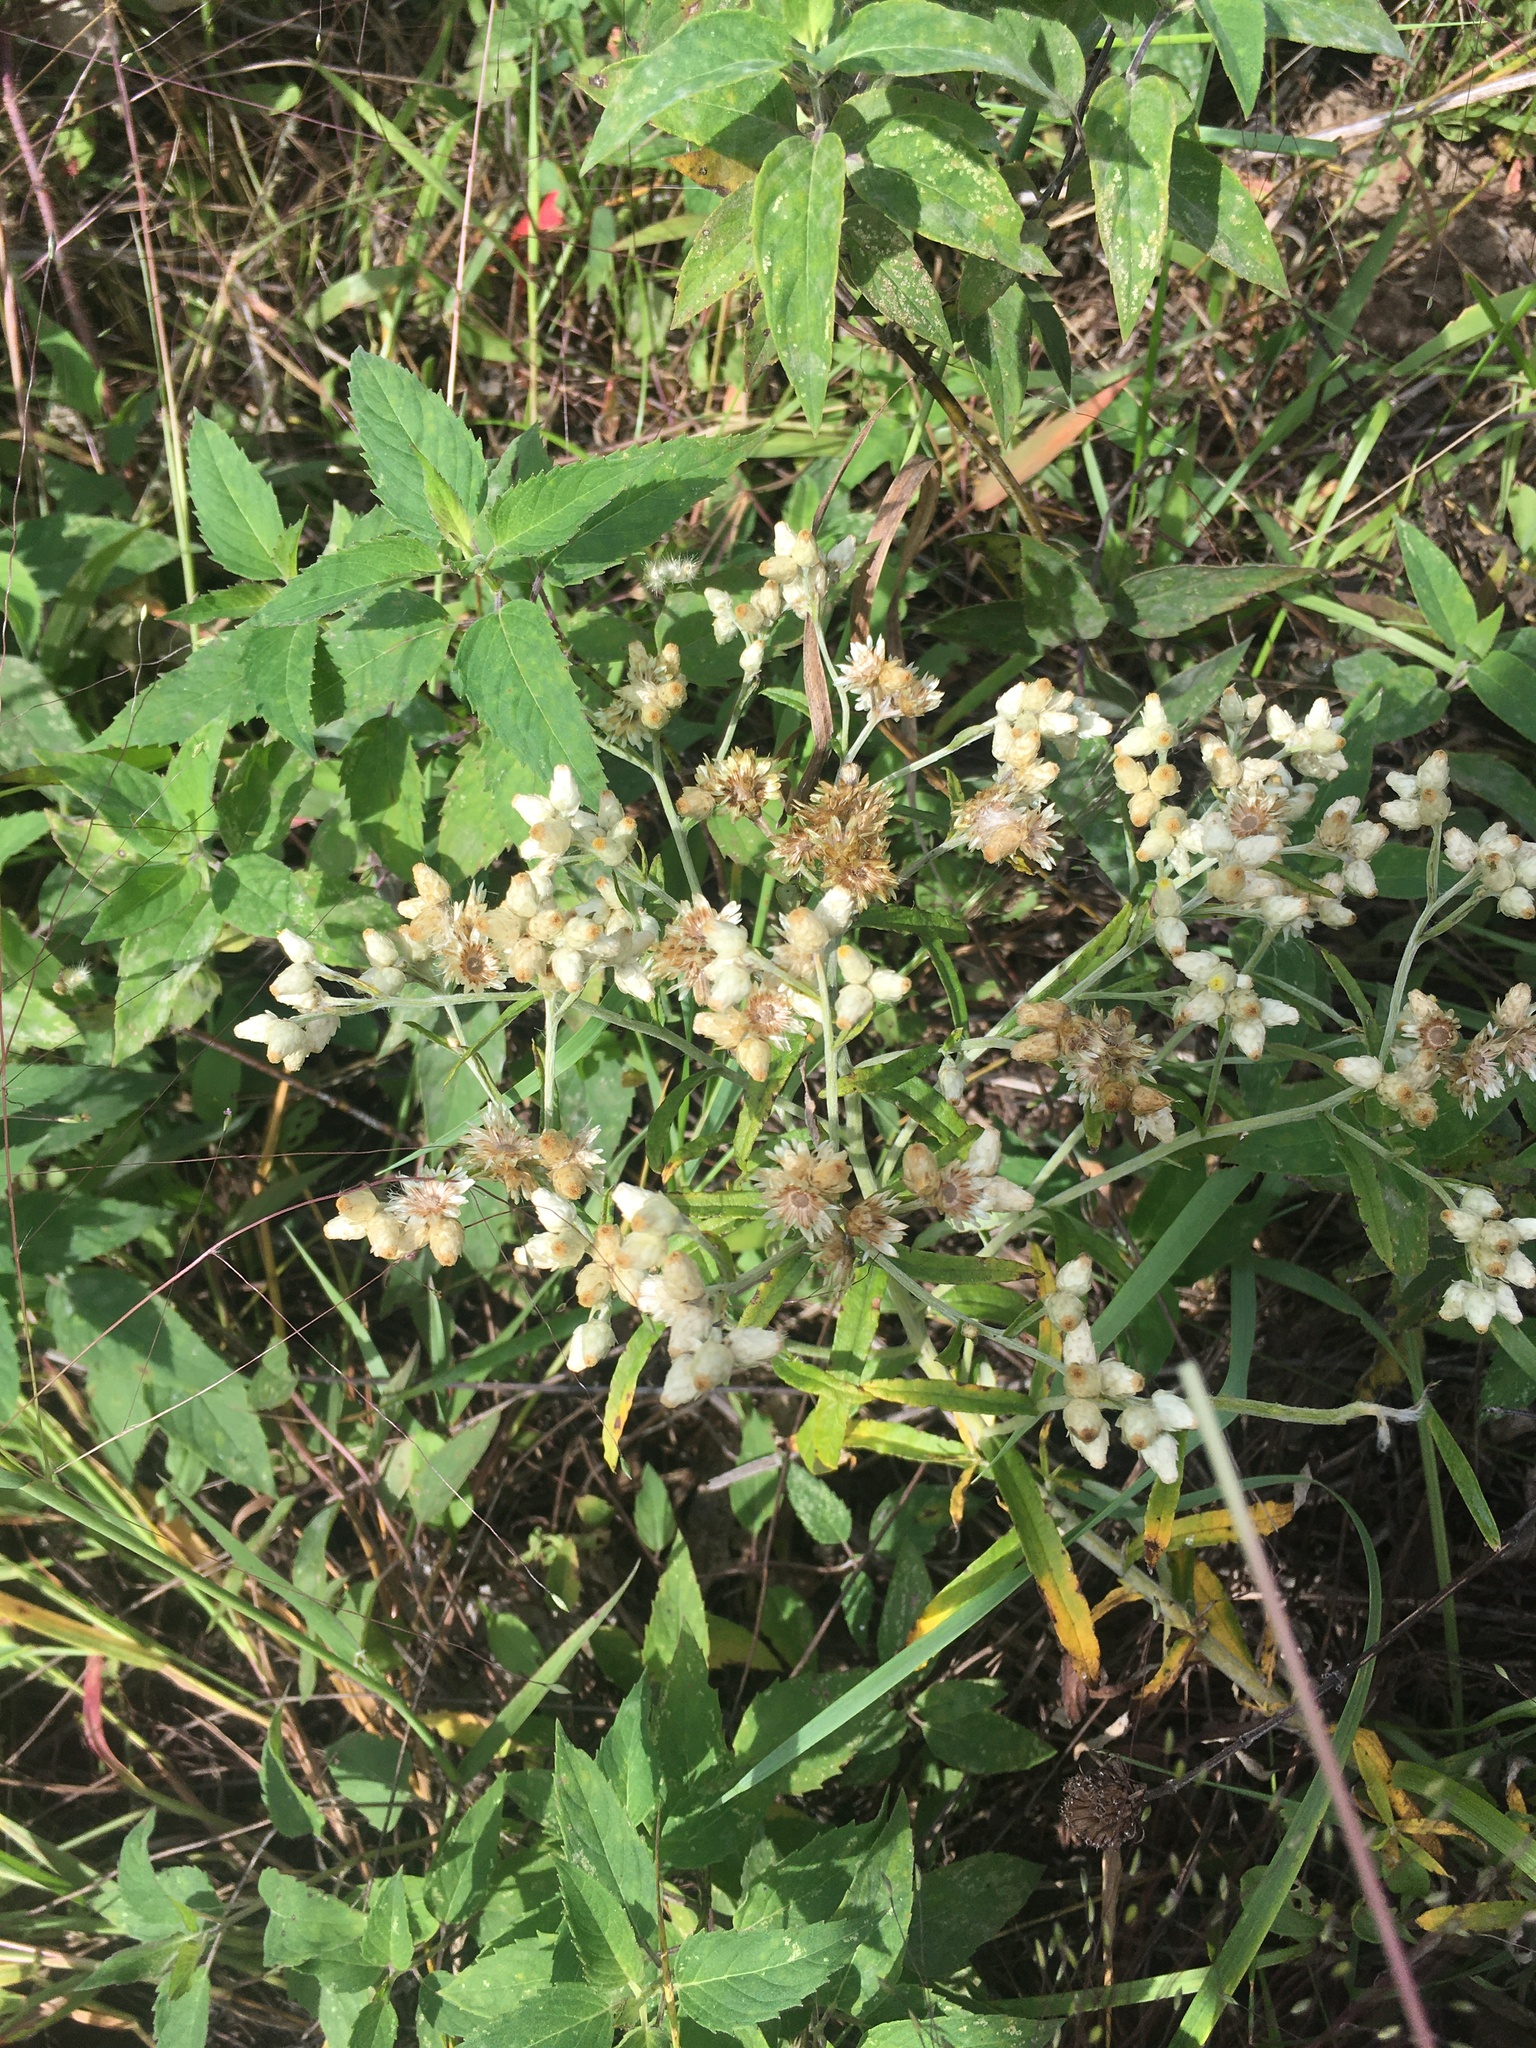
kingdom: Plantae
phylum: Tracheophyta
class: Magnoliopsida
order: Asterales
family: Asteraceae
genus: Pseudognaphalium
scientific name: Pseudognaphalium obtusifolium
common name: Eastern rabbit-tobacco
